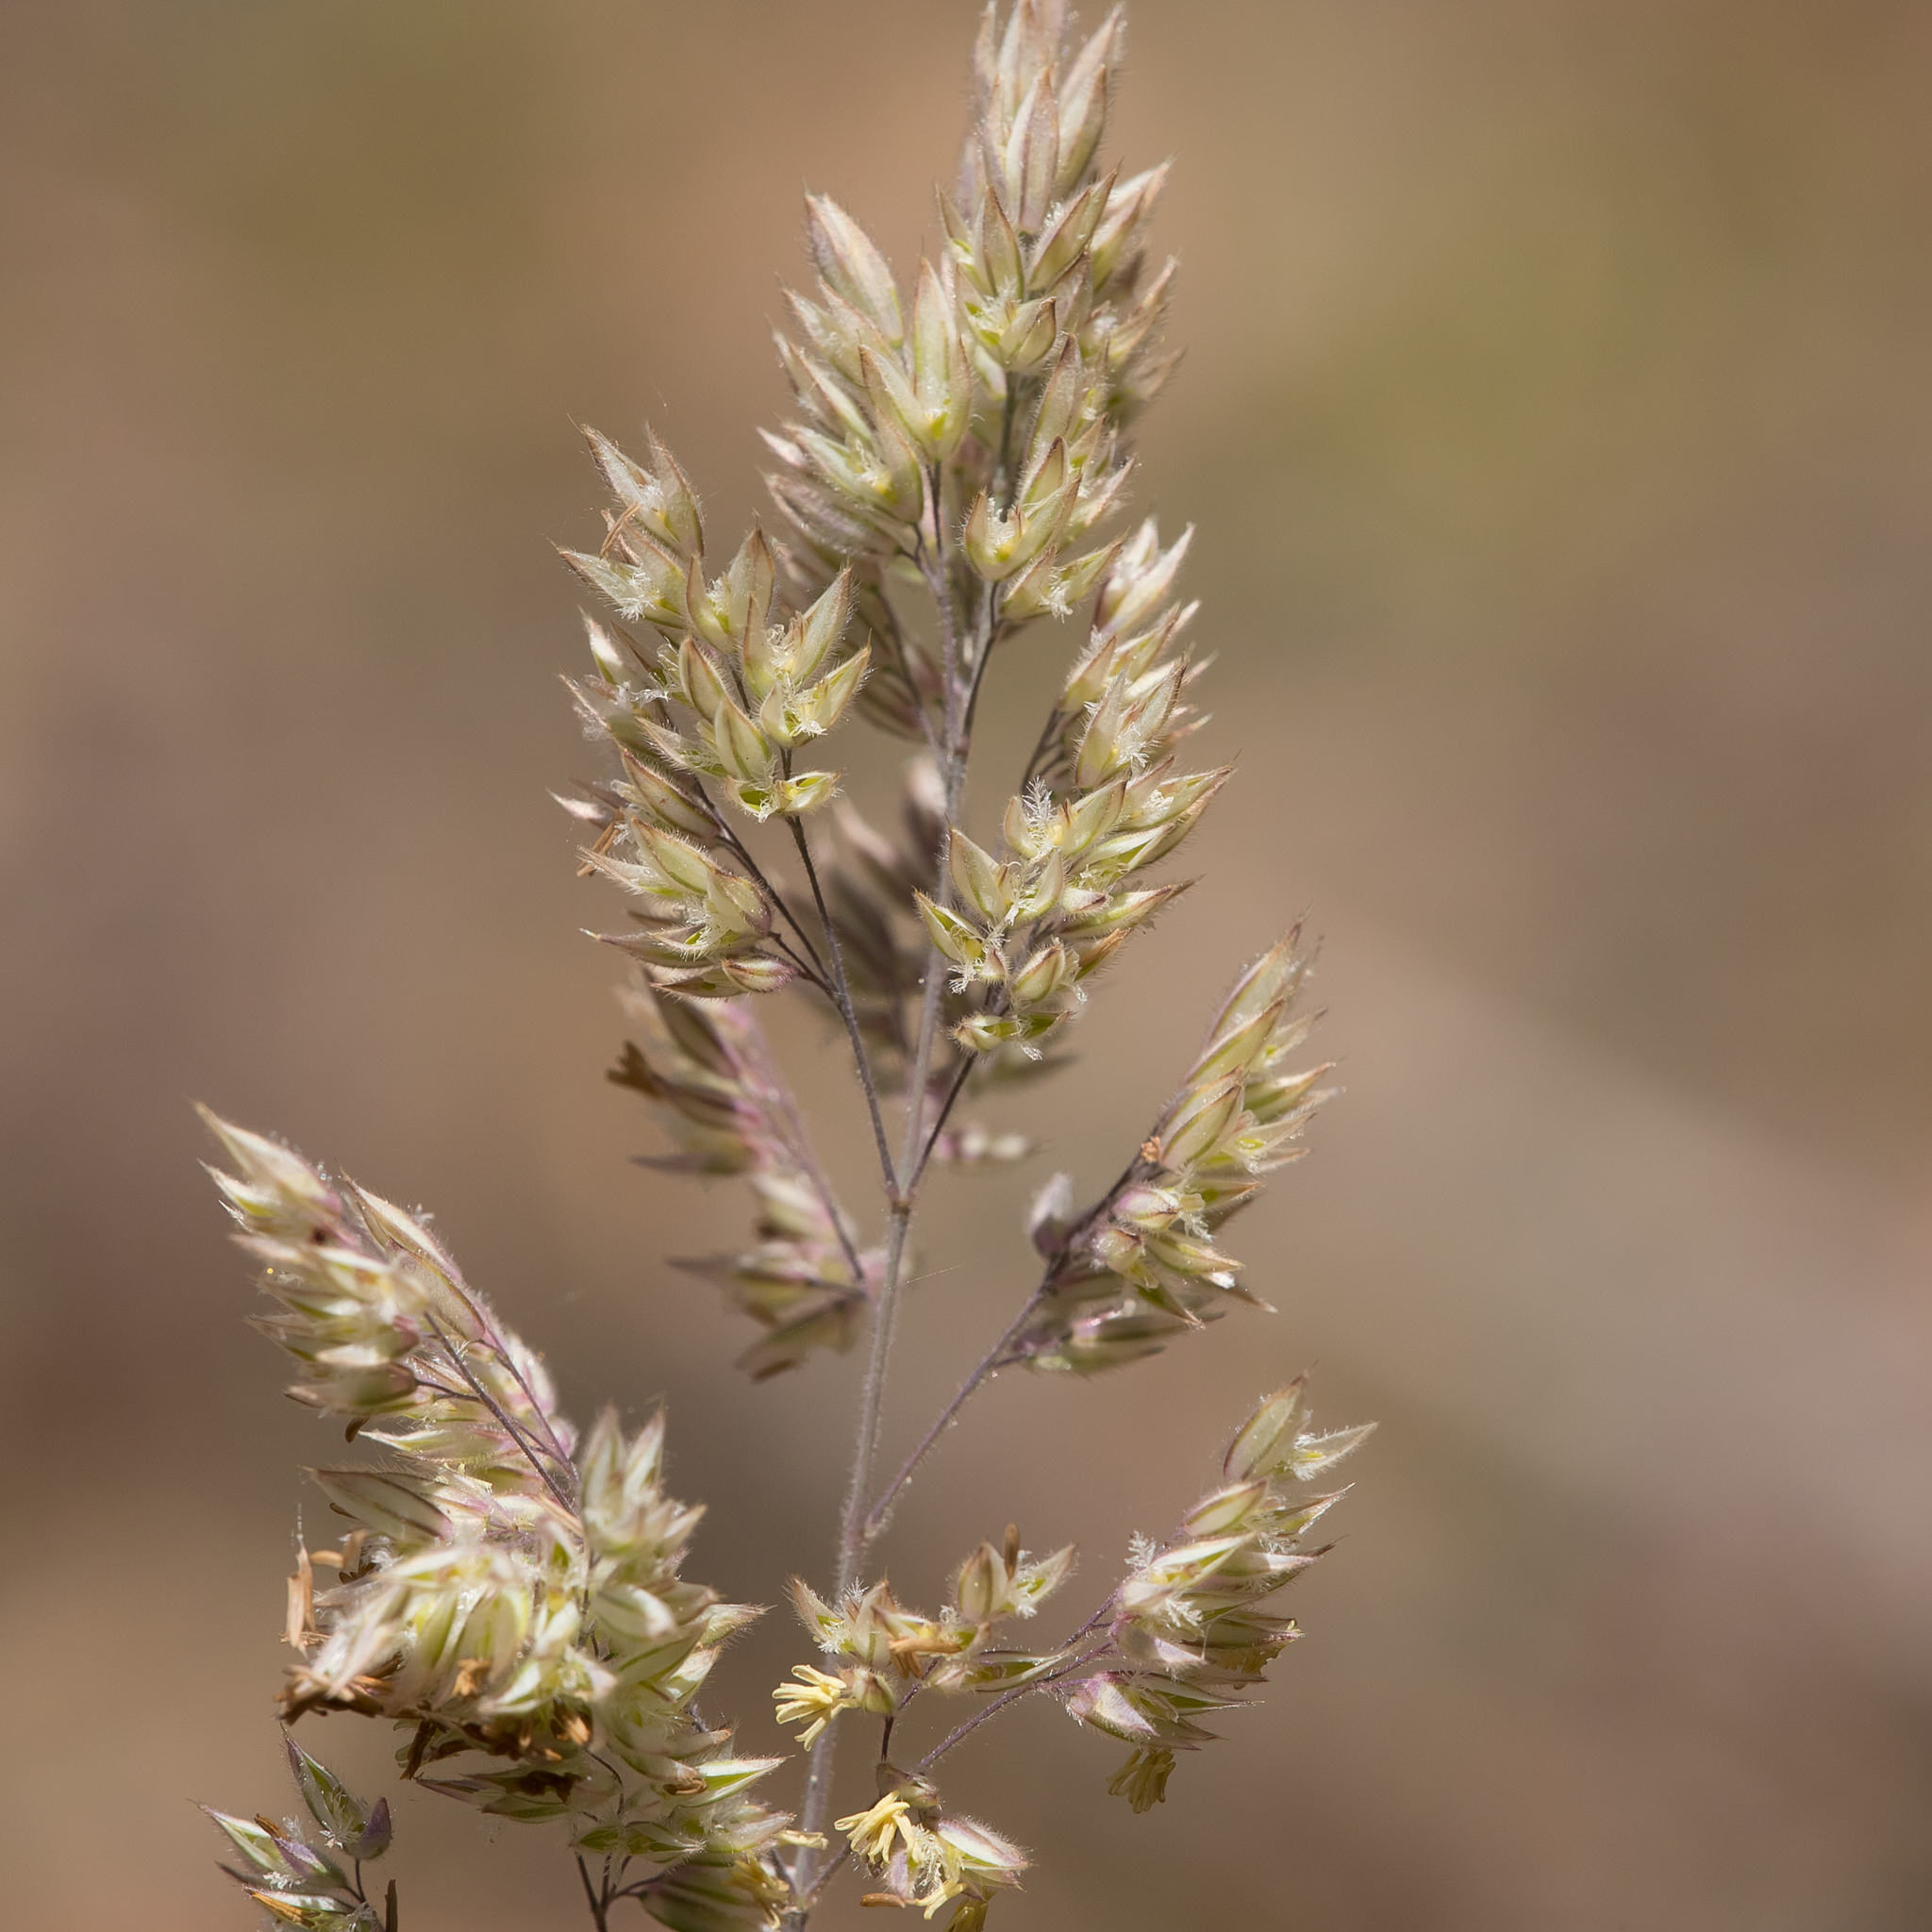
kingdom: Plantae
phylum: Tracheophyta
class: Liliopsida
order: Poales
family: Poaceae
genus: Holcus
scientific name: Holcus lanatus
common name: Yorkshire-fog
